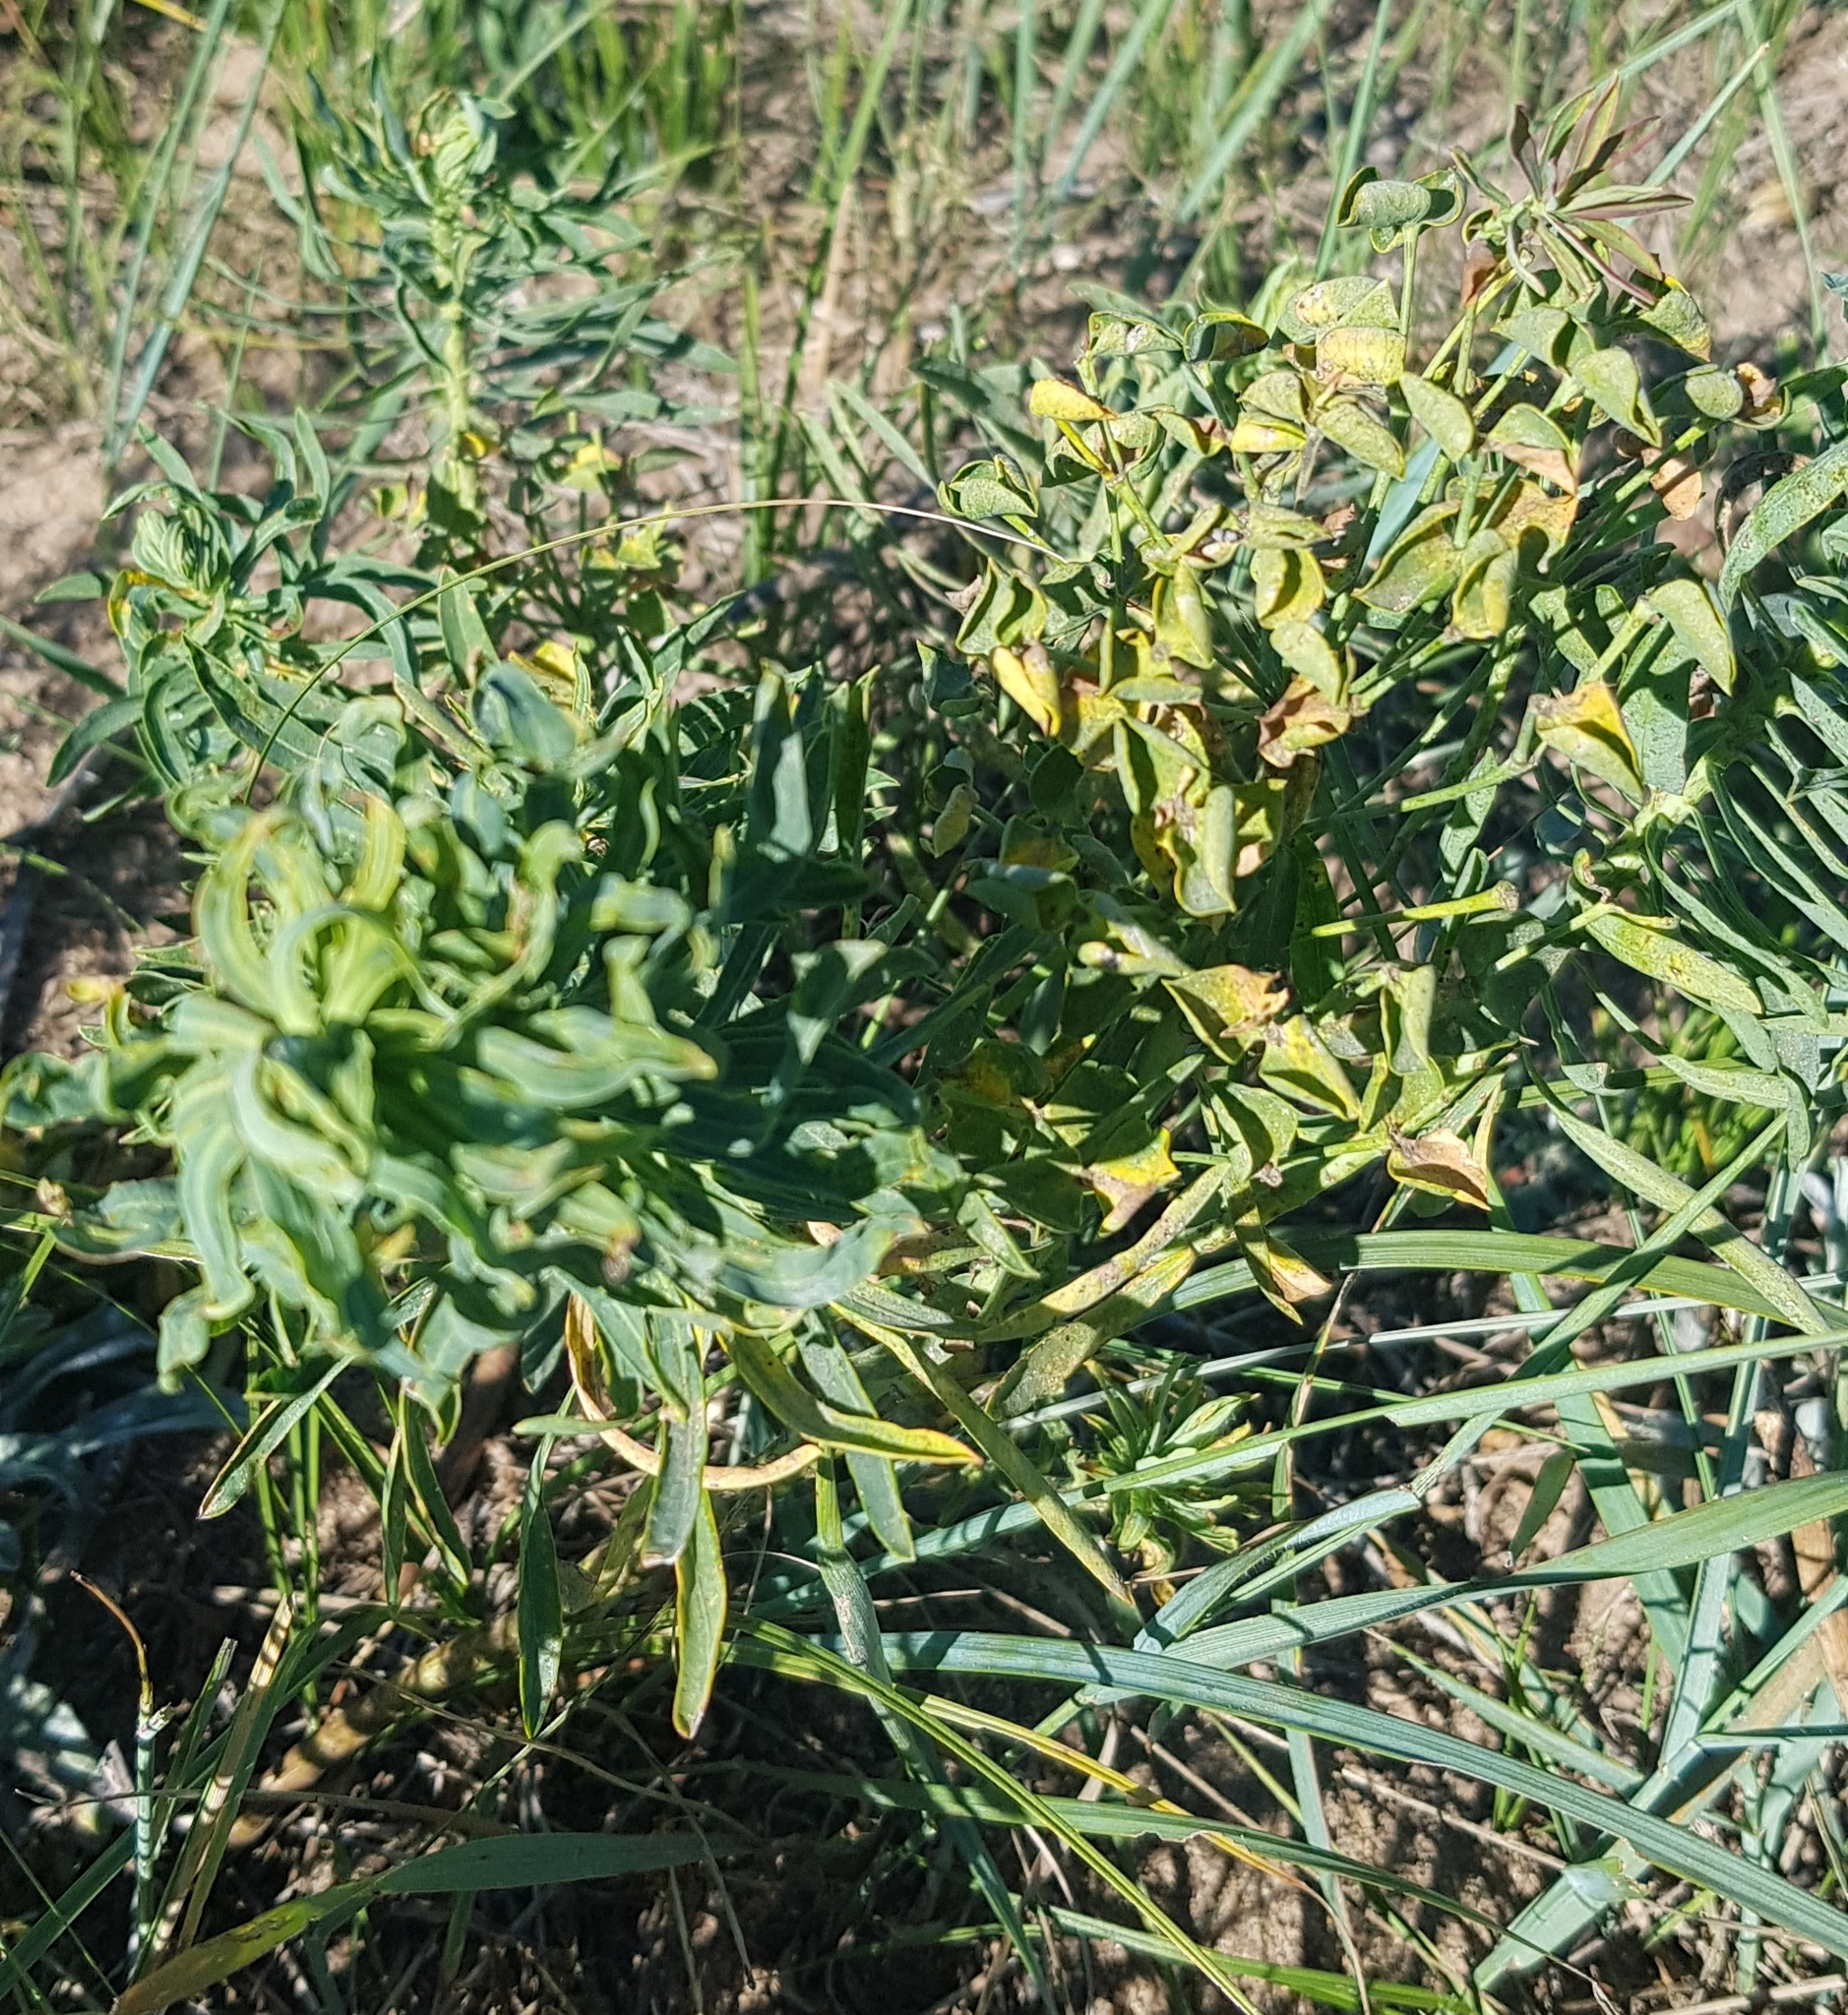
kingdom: Plantae
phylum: Tracheophyta
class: Magnoliopsida
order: Malpighiales
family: Euphorbiaceae
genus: Euphorbia
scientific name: Euphorbia esula
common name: Leafy spurge
